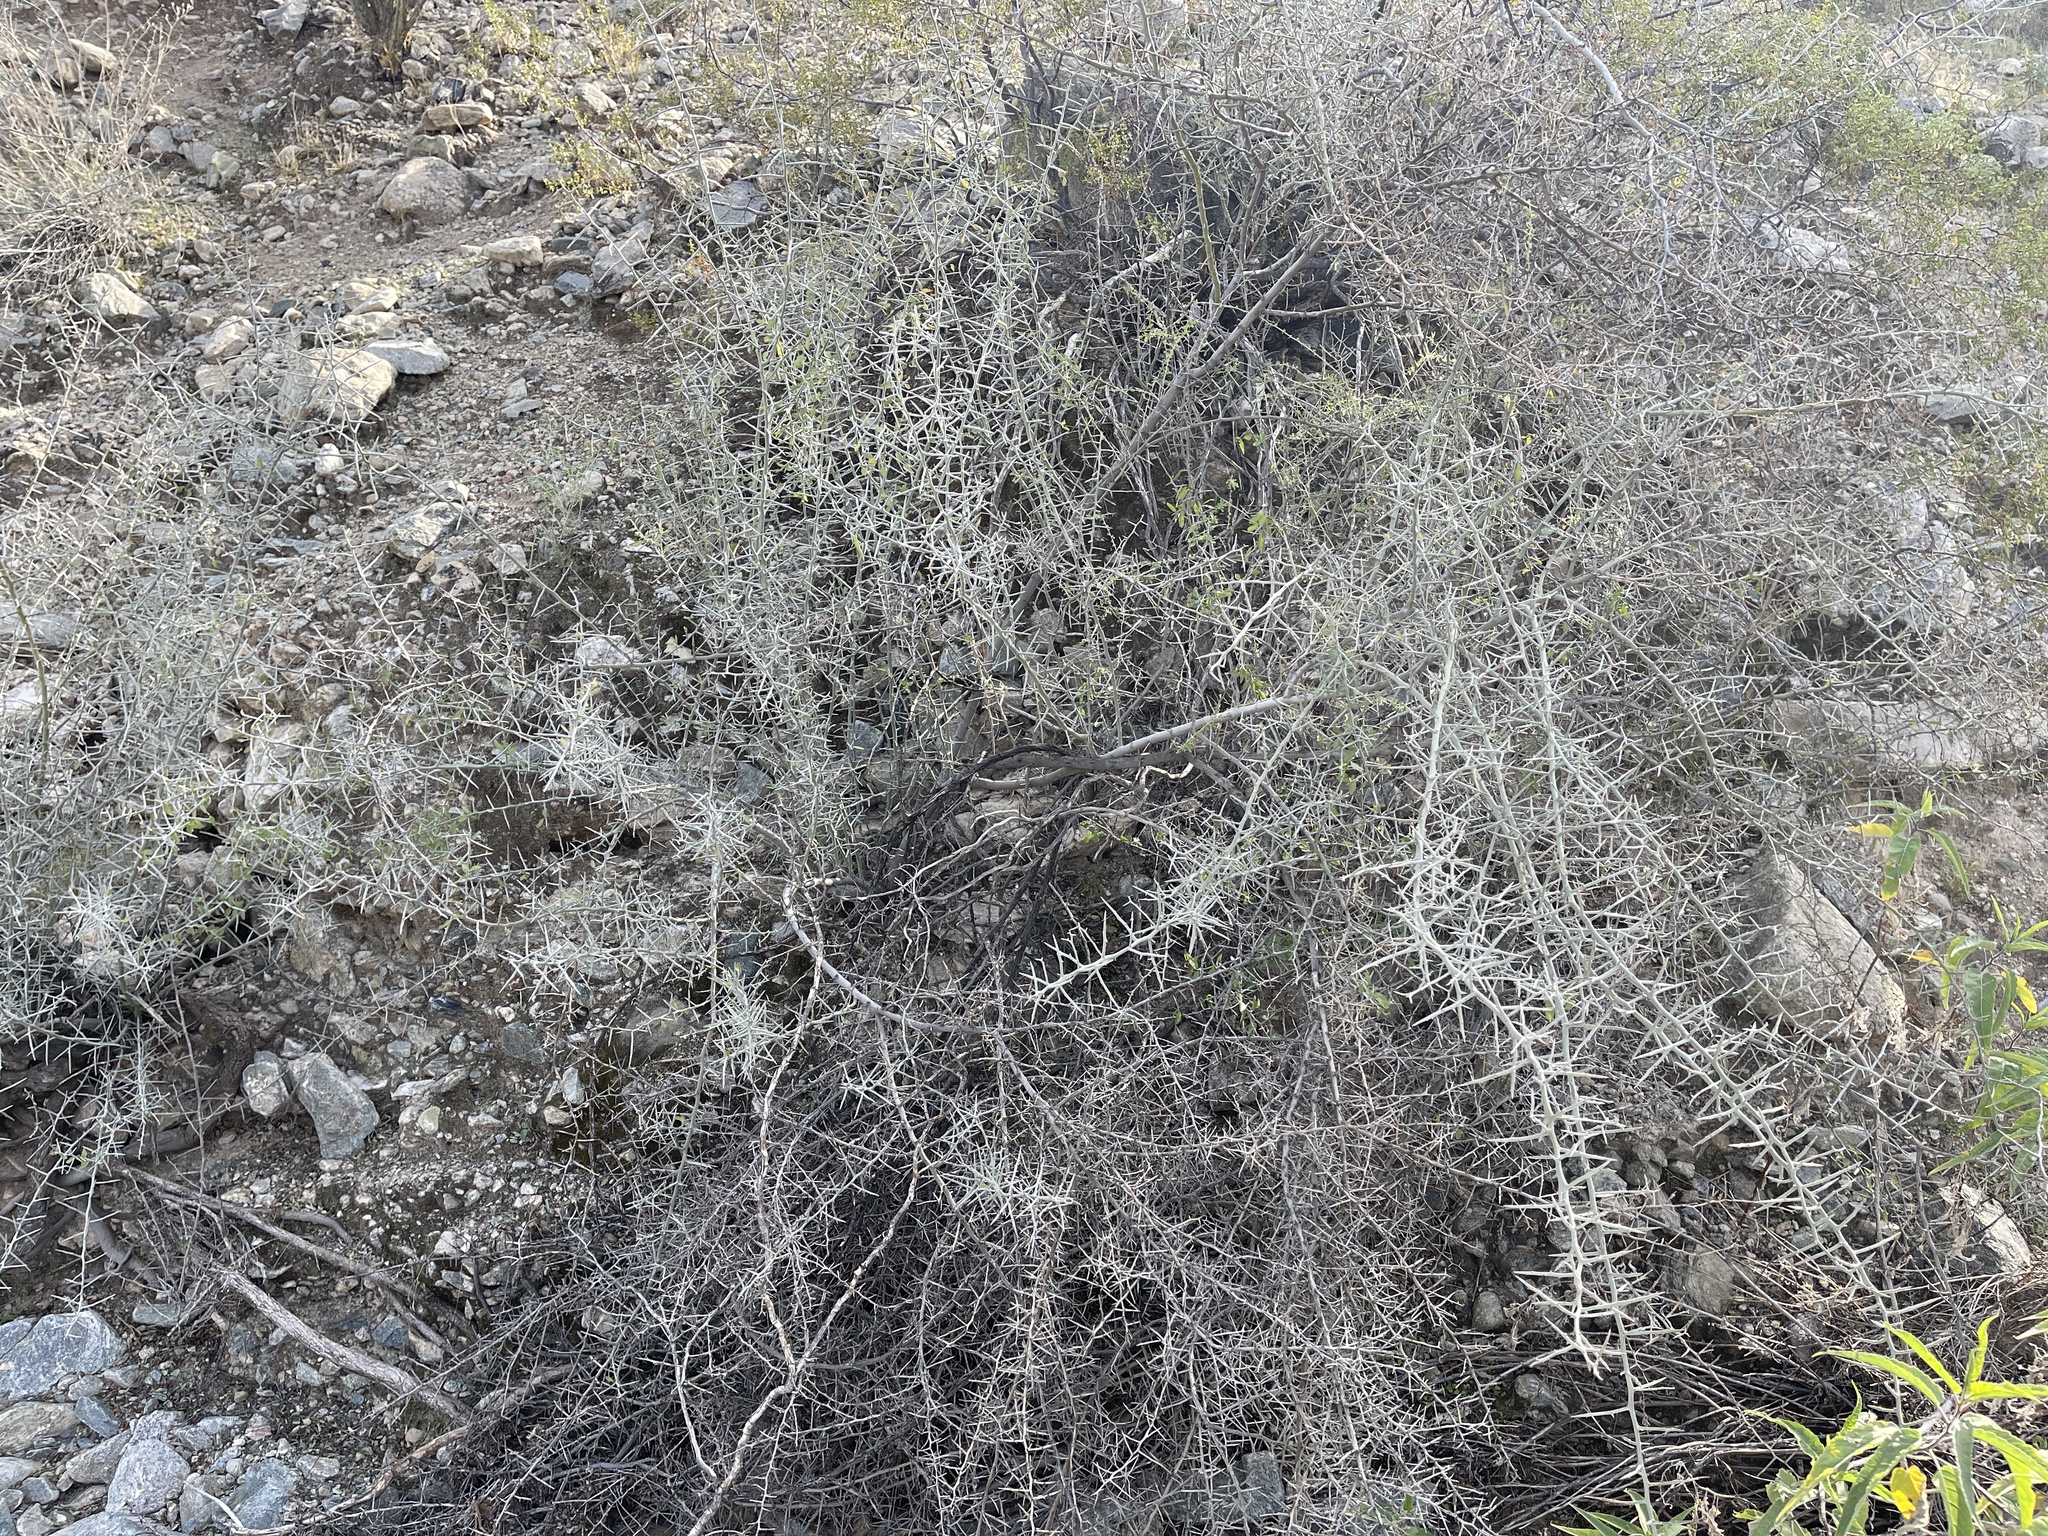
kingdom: Plantae
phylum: Tracheophyta
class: Magnoliopsida
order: Rosales
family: Rhamnaceae
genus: Sarcomphalus
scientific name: Sarcomphalus obtusifolius
